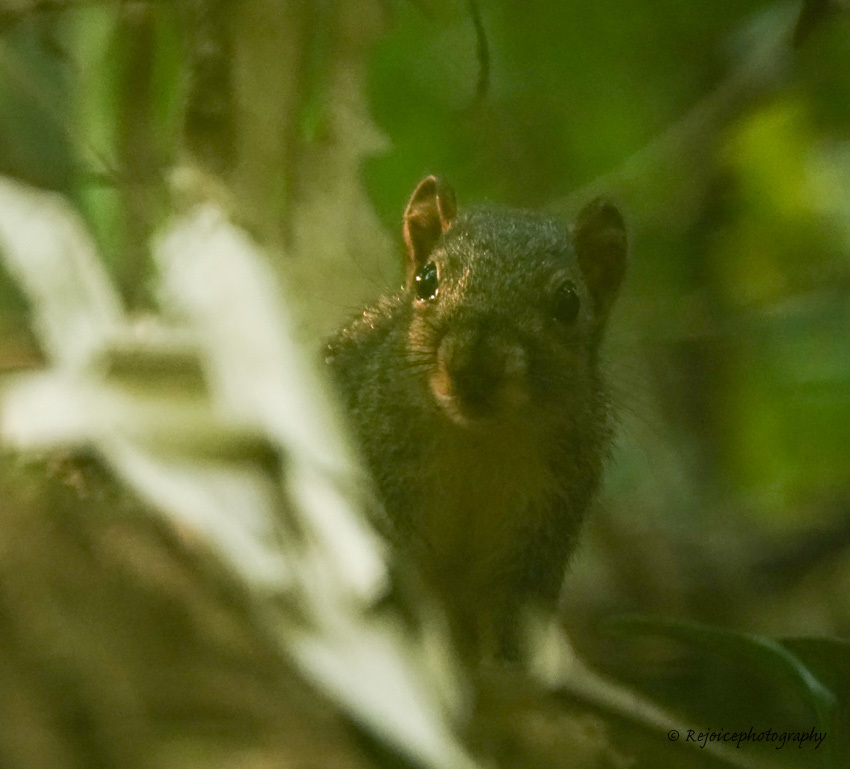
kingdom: Animalia
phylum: Chordata
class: Mammalia
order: Rodentia
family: Sciuridae
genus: Dremomys
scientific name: Dremomys lokriah
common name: Orange-bellied himalayan squirrel
